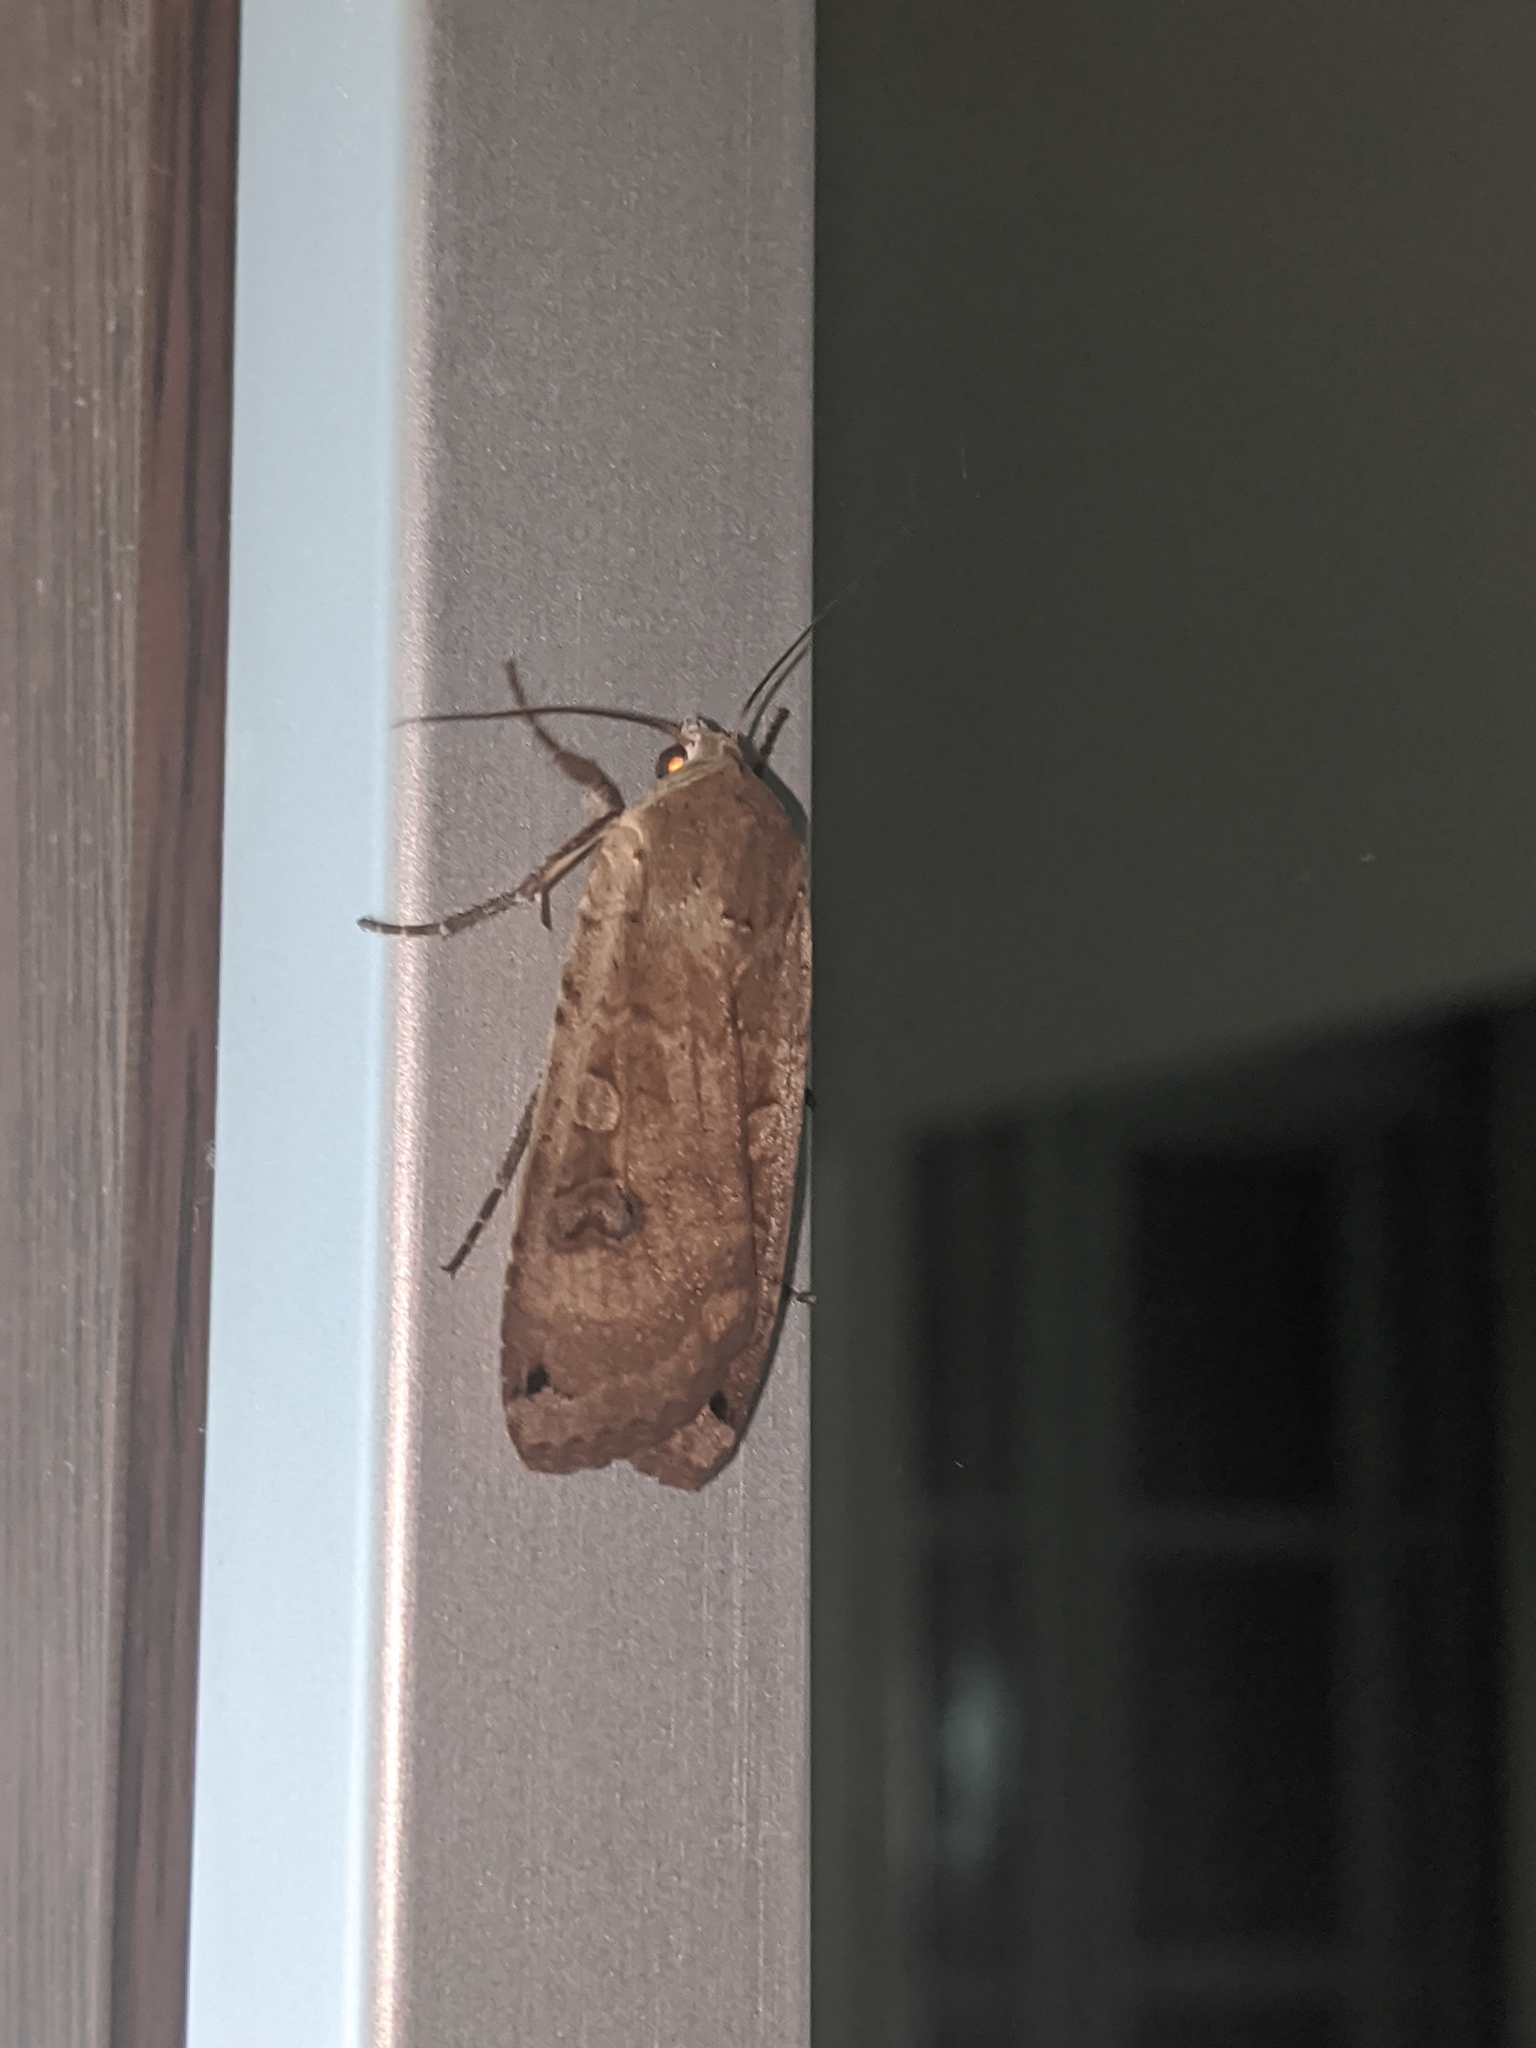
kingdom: Animalia
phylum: Arthropoda
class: Insecta
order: Lepidoptera
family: Noctuidae
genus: Noctua
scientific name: Noctua pronuba
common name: Large yellow underwing
